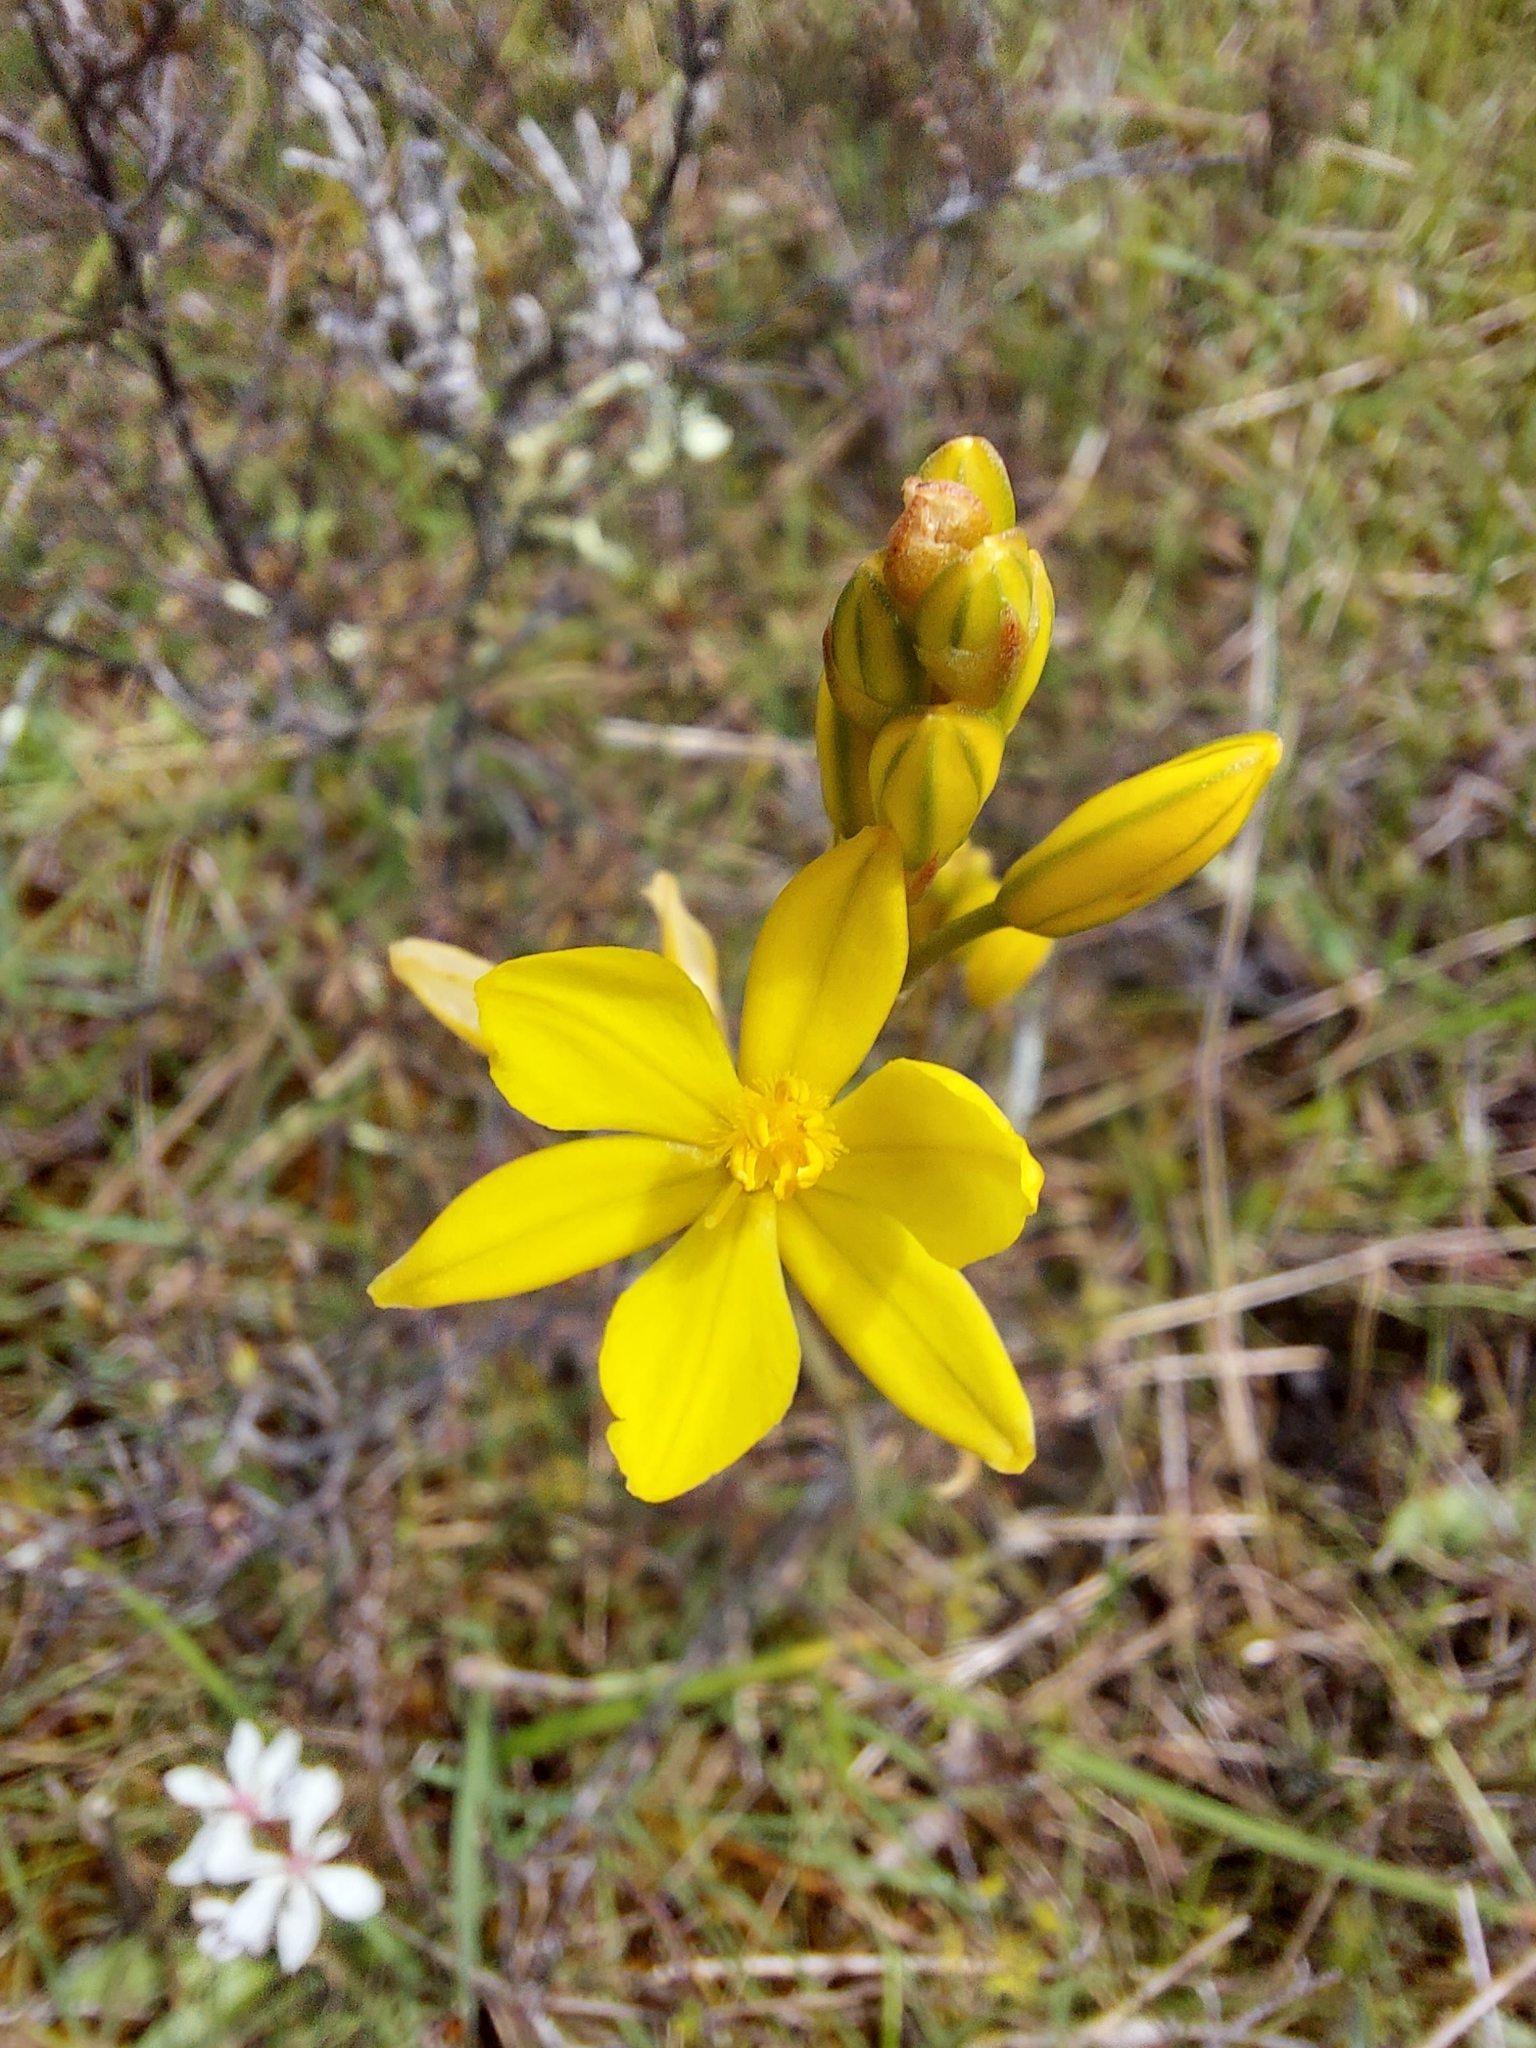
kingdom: Plantae
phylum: Tracheophyta
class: Liliopsida
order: Asparagales
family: Asphodelaceae
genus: Bulbine
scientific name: Bulbine bulbosa
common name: Golden-lily
